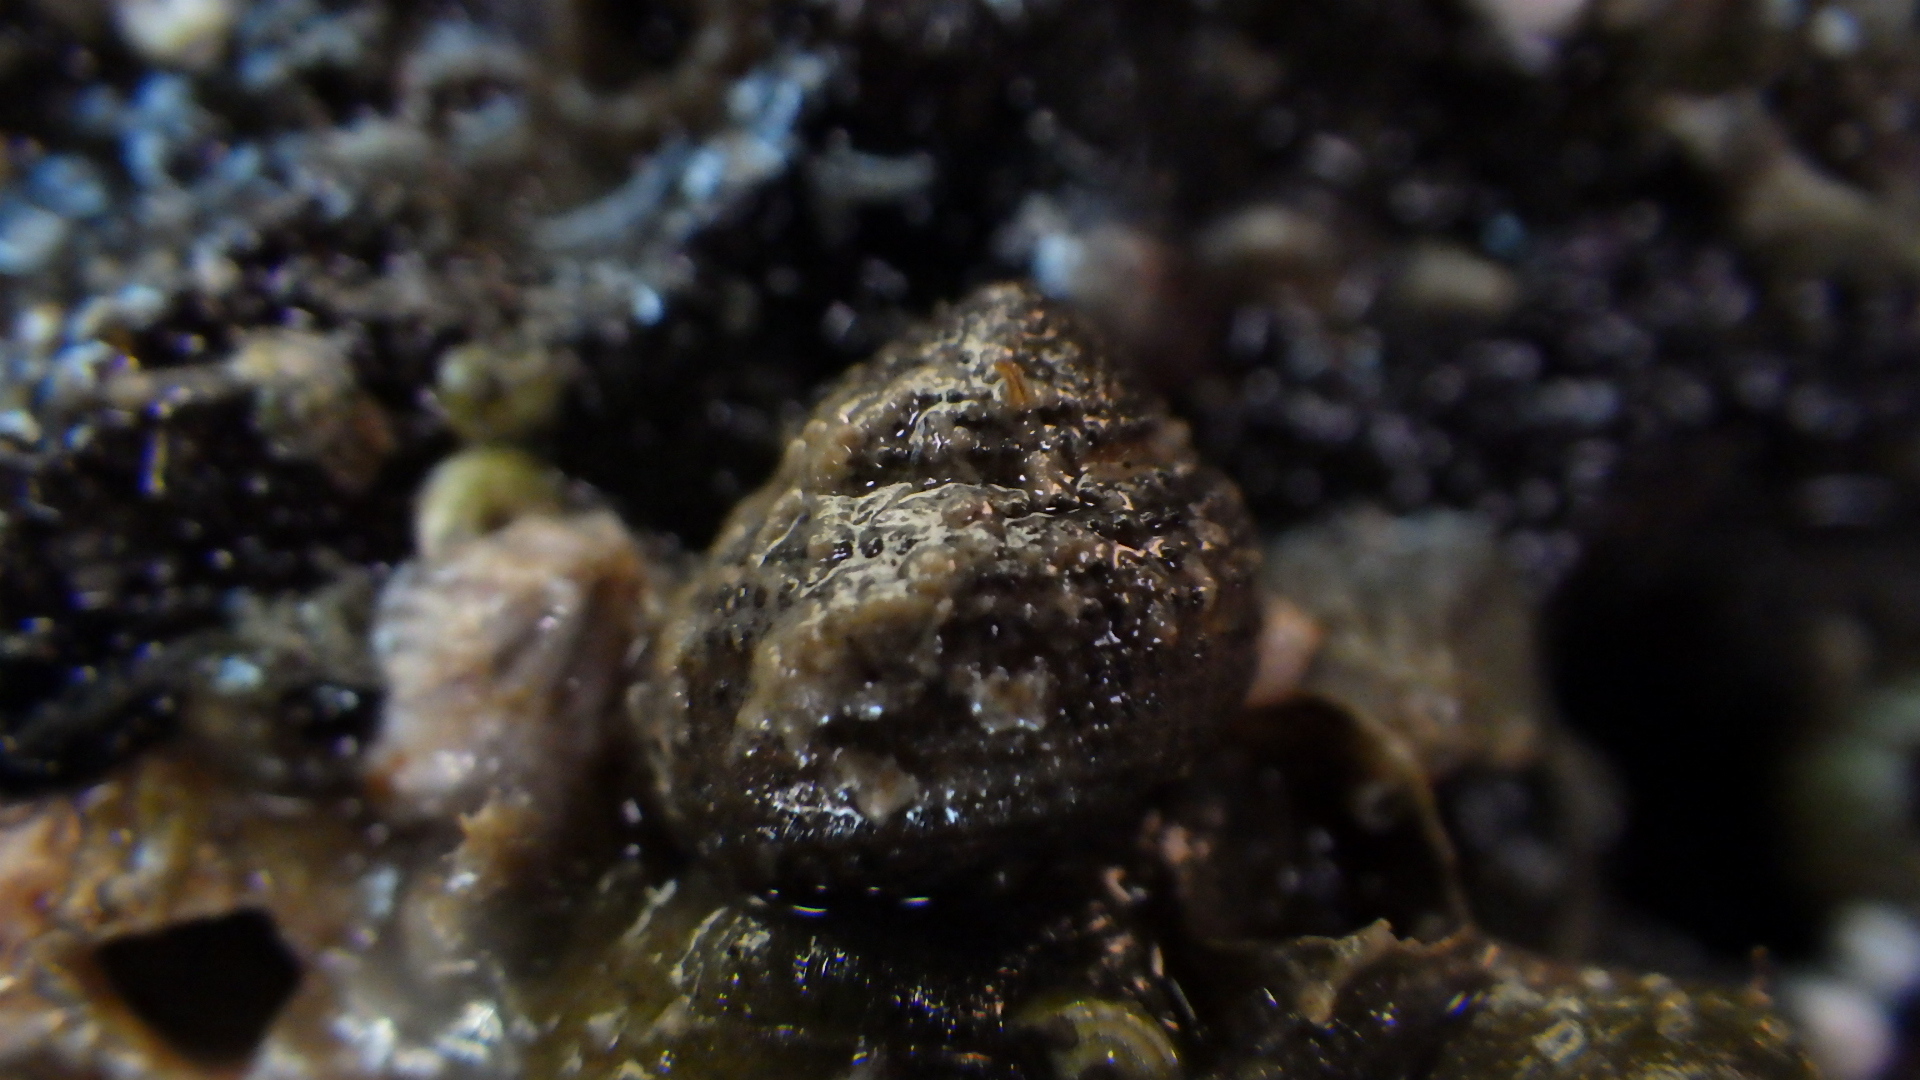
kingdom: Animalia
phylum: Mollusca
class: Gastropoda
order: Seguenziida
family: Chilodontaidae
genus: Herpetopoma
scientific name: Herpetopoma bellum
